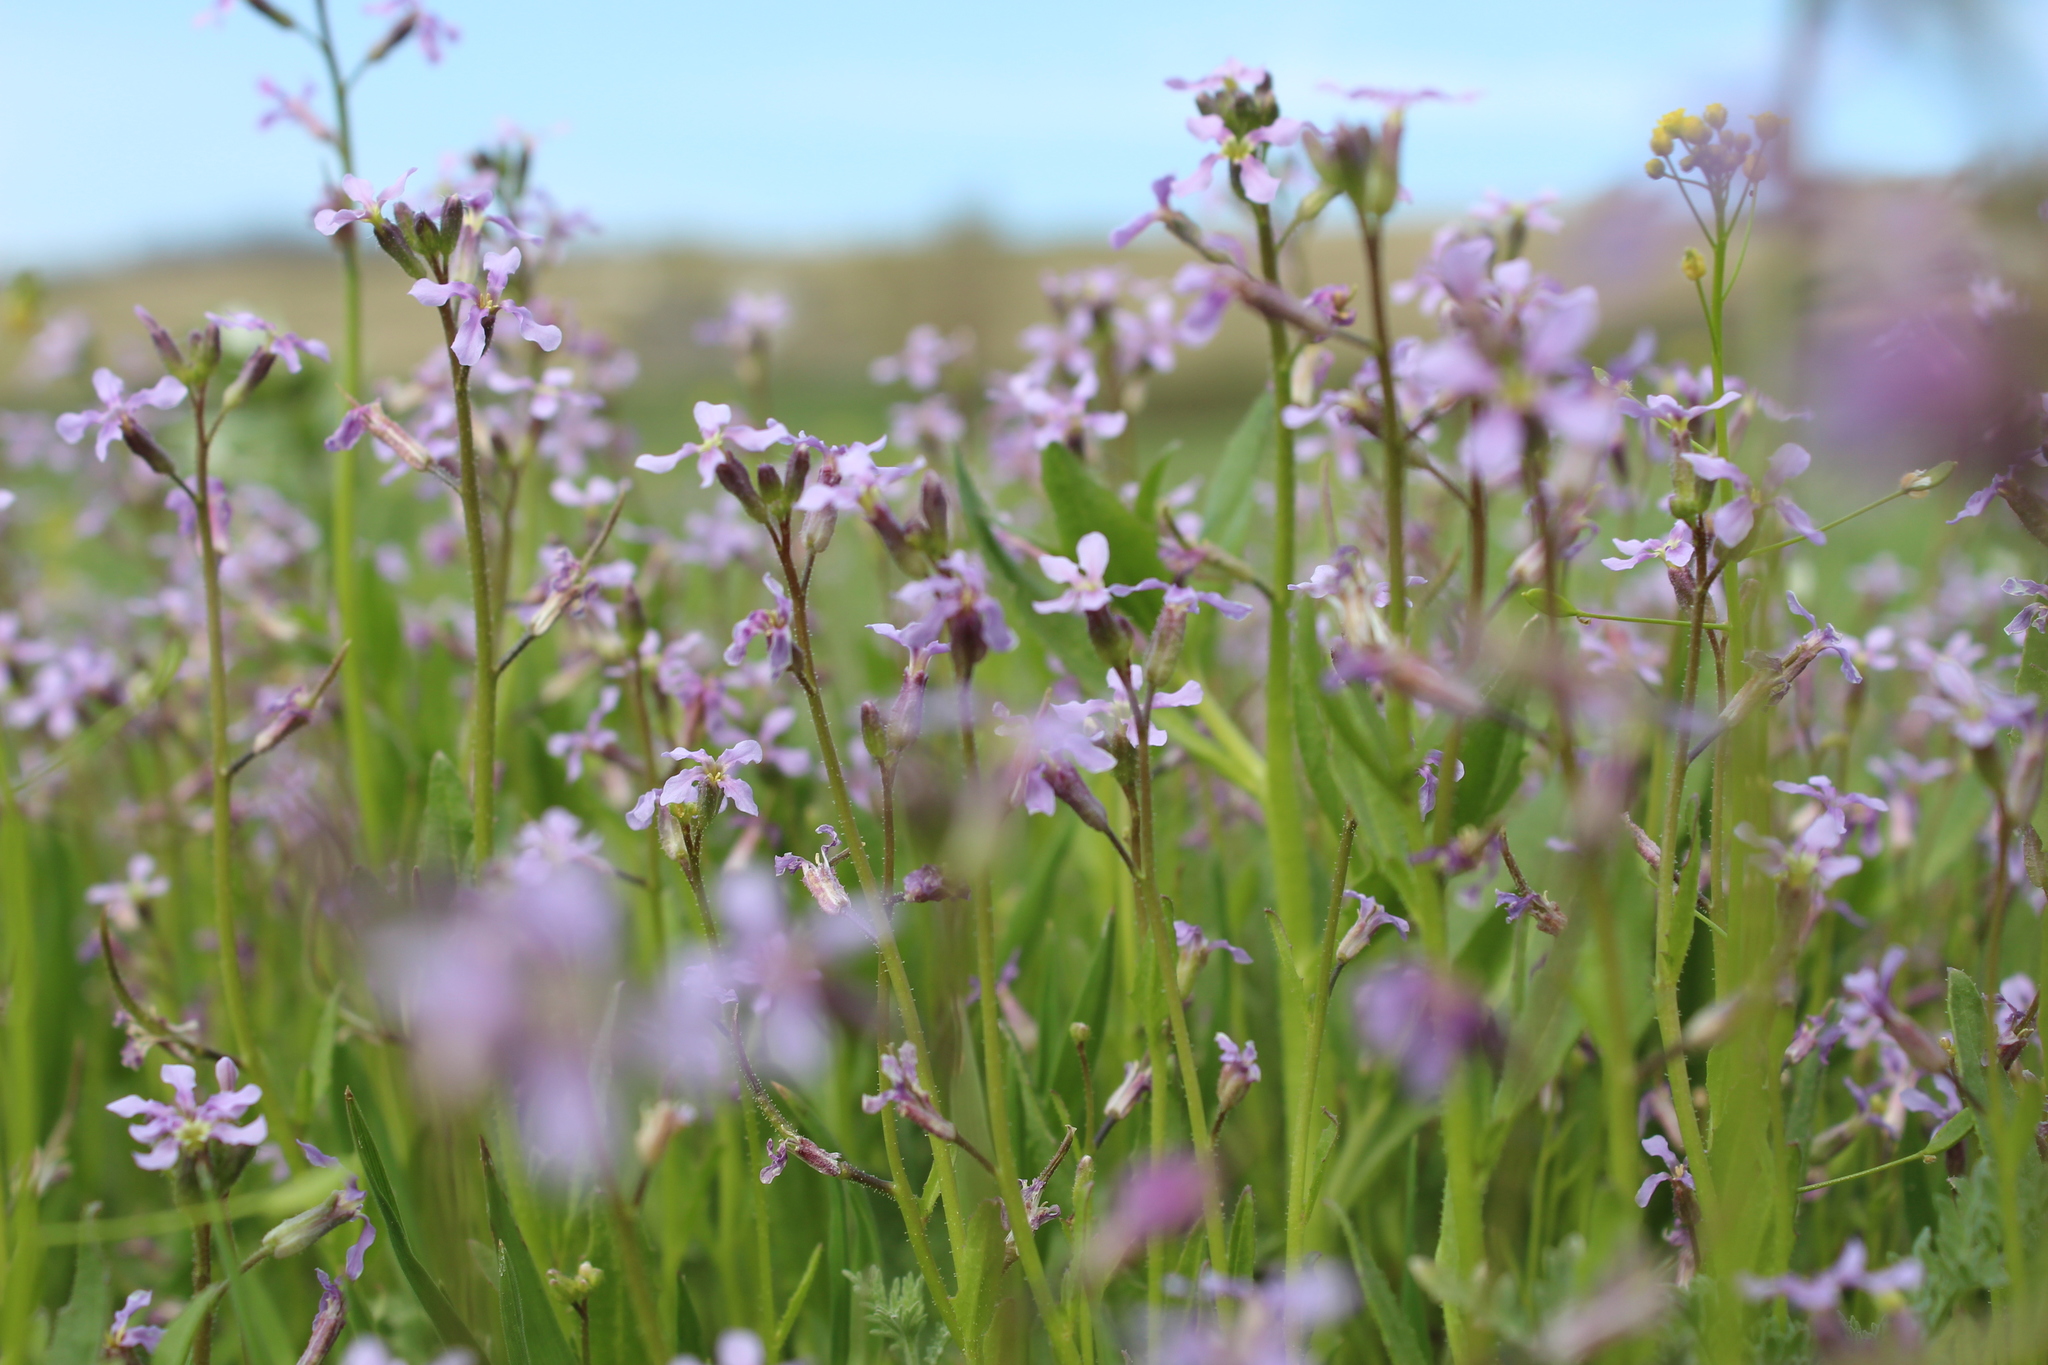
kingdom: Plantae
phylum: Tracheophyta
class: Magnoliopsida
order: Brassicales
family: Brassicaceae
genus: Chorispora
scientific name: Chorispora tenella
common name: Crossflower
